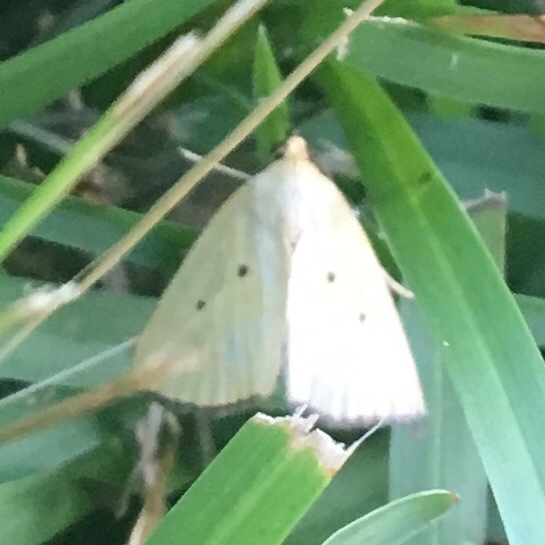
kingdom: Animalia
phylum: Arthropoda
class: Insecta
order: Lepidoptera
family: Noctuidae
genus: Marimatha
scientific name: Marimatha nigrofimbria
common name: Black-bordered lemon moth
